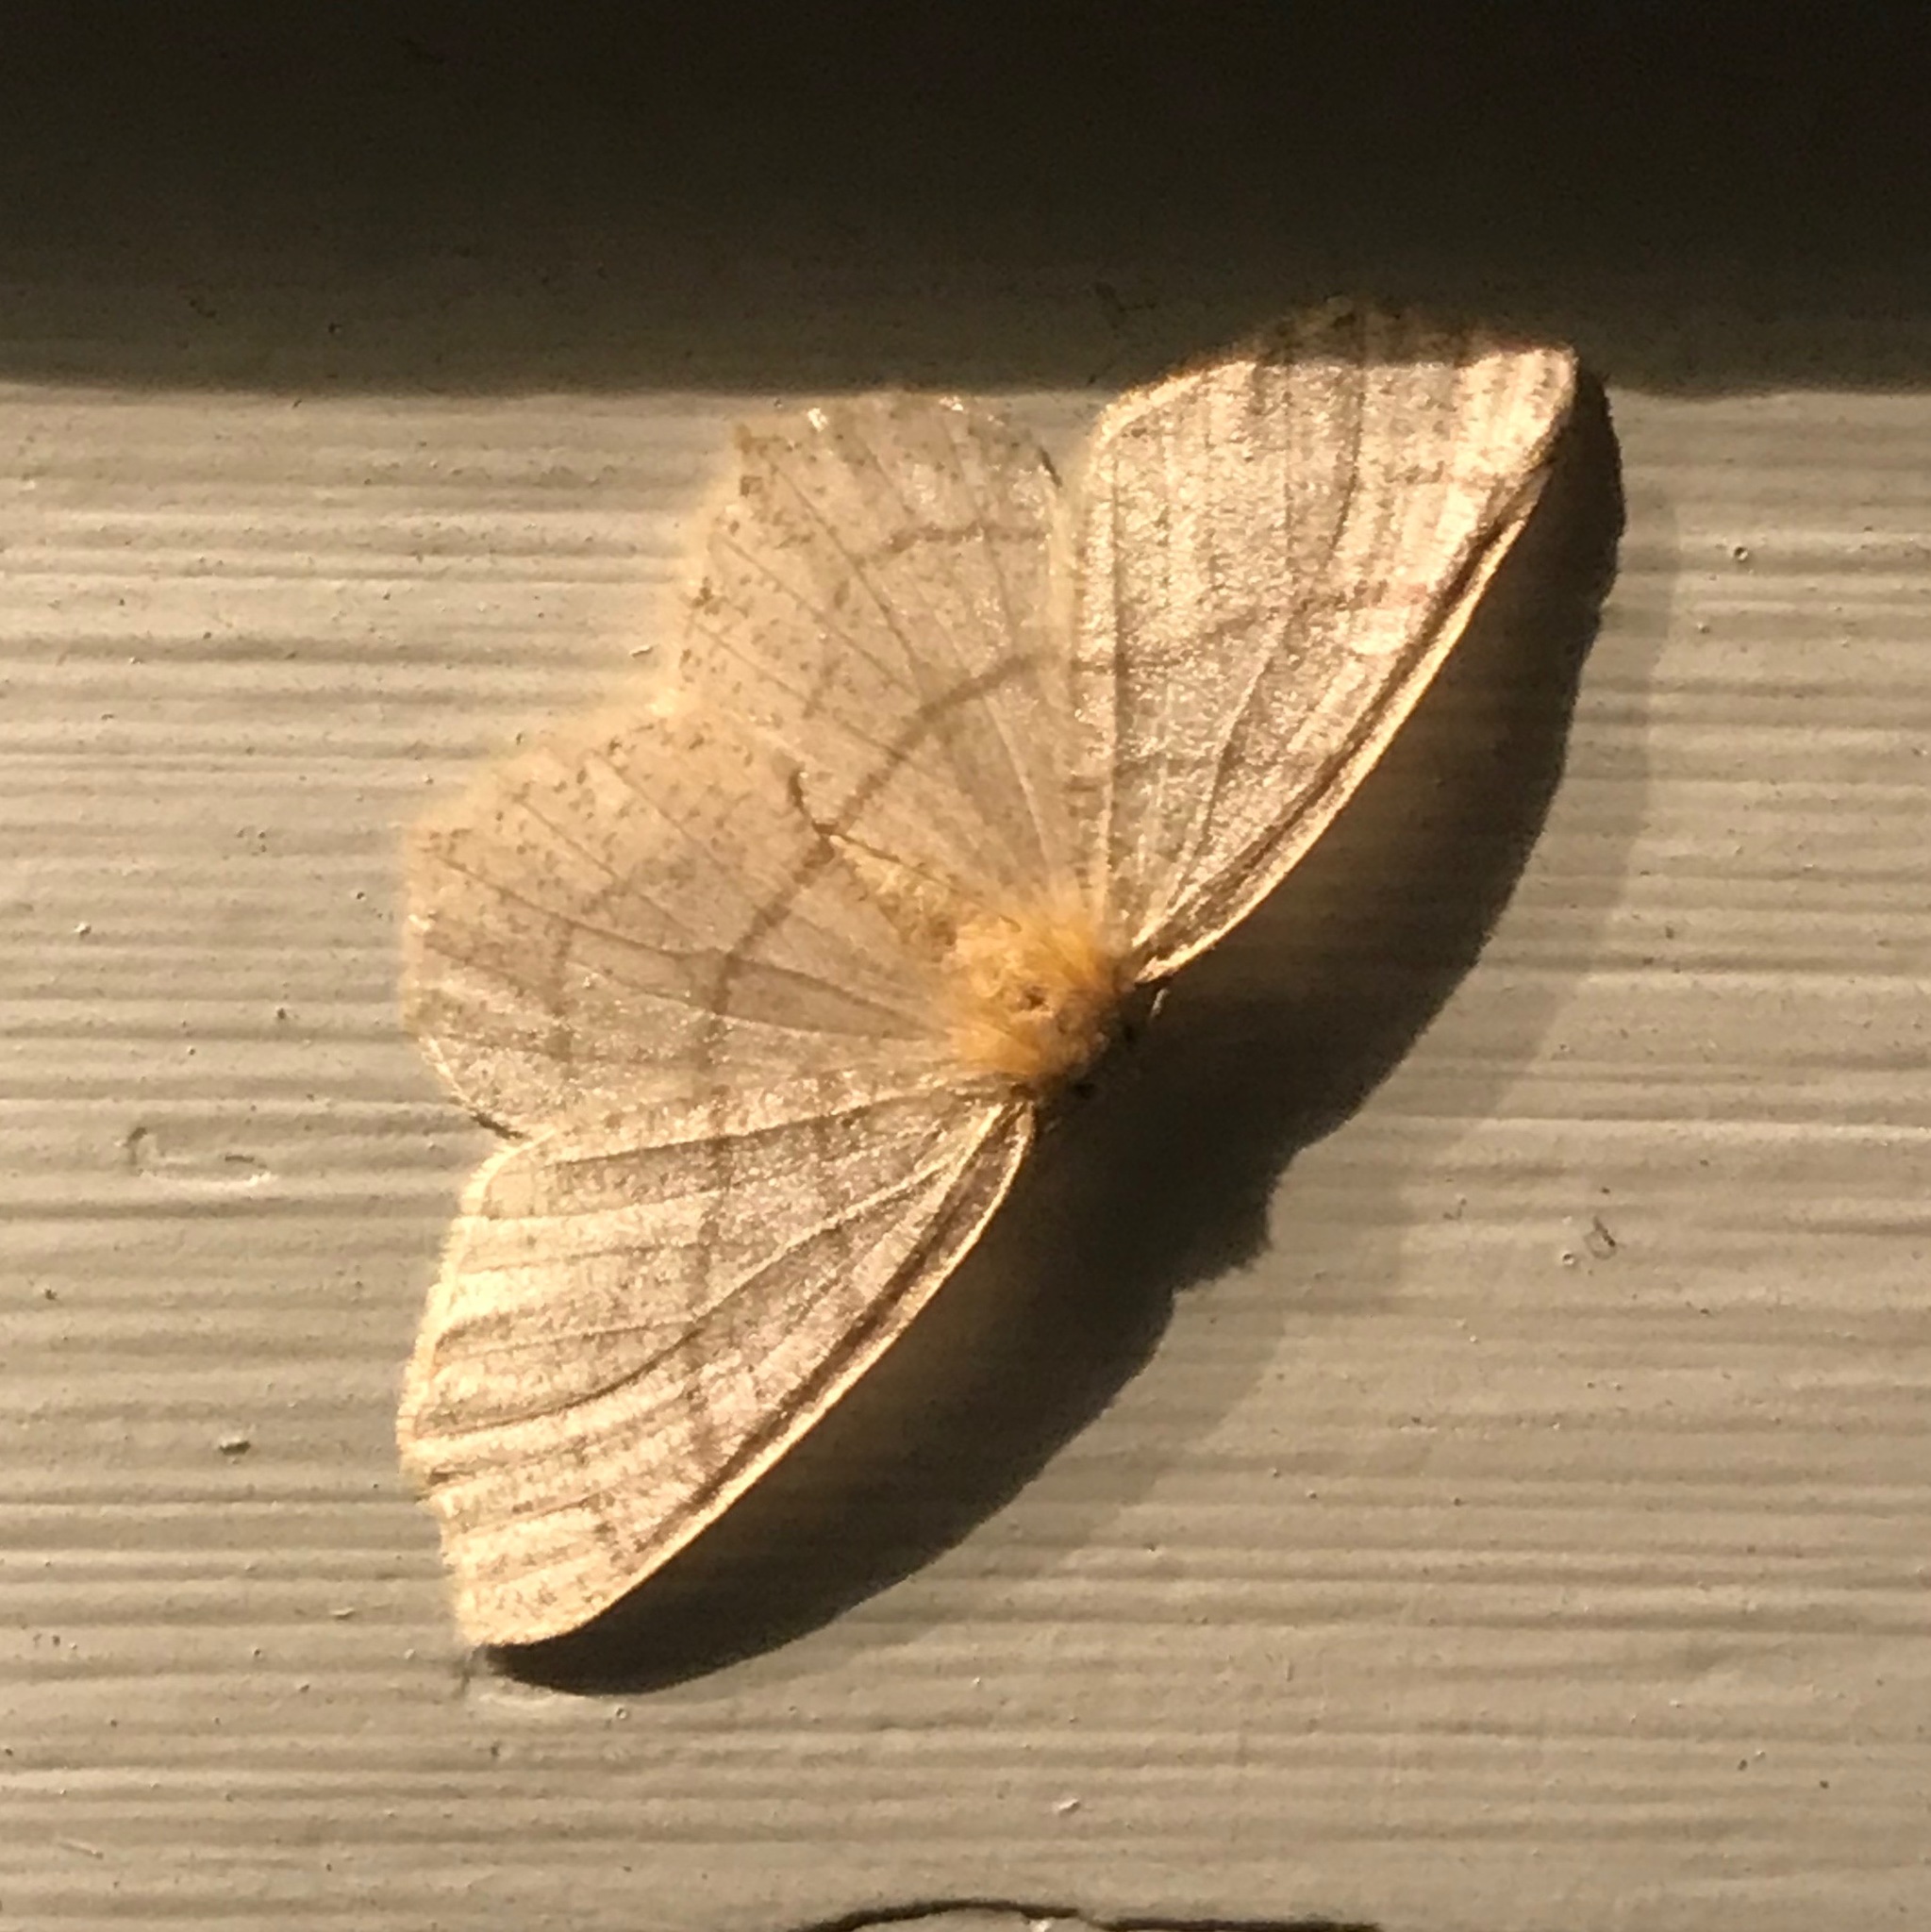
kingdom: Animalia
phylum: Arthropoda
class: Insecta
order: Lepidoptera
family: Geometridae
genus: Besma
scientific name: Besma endropiaria
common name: Straw besma
